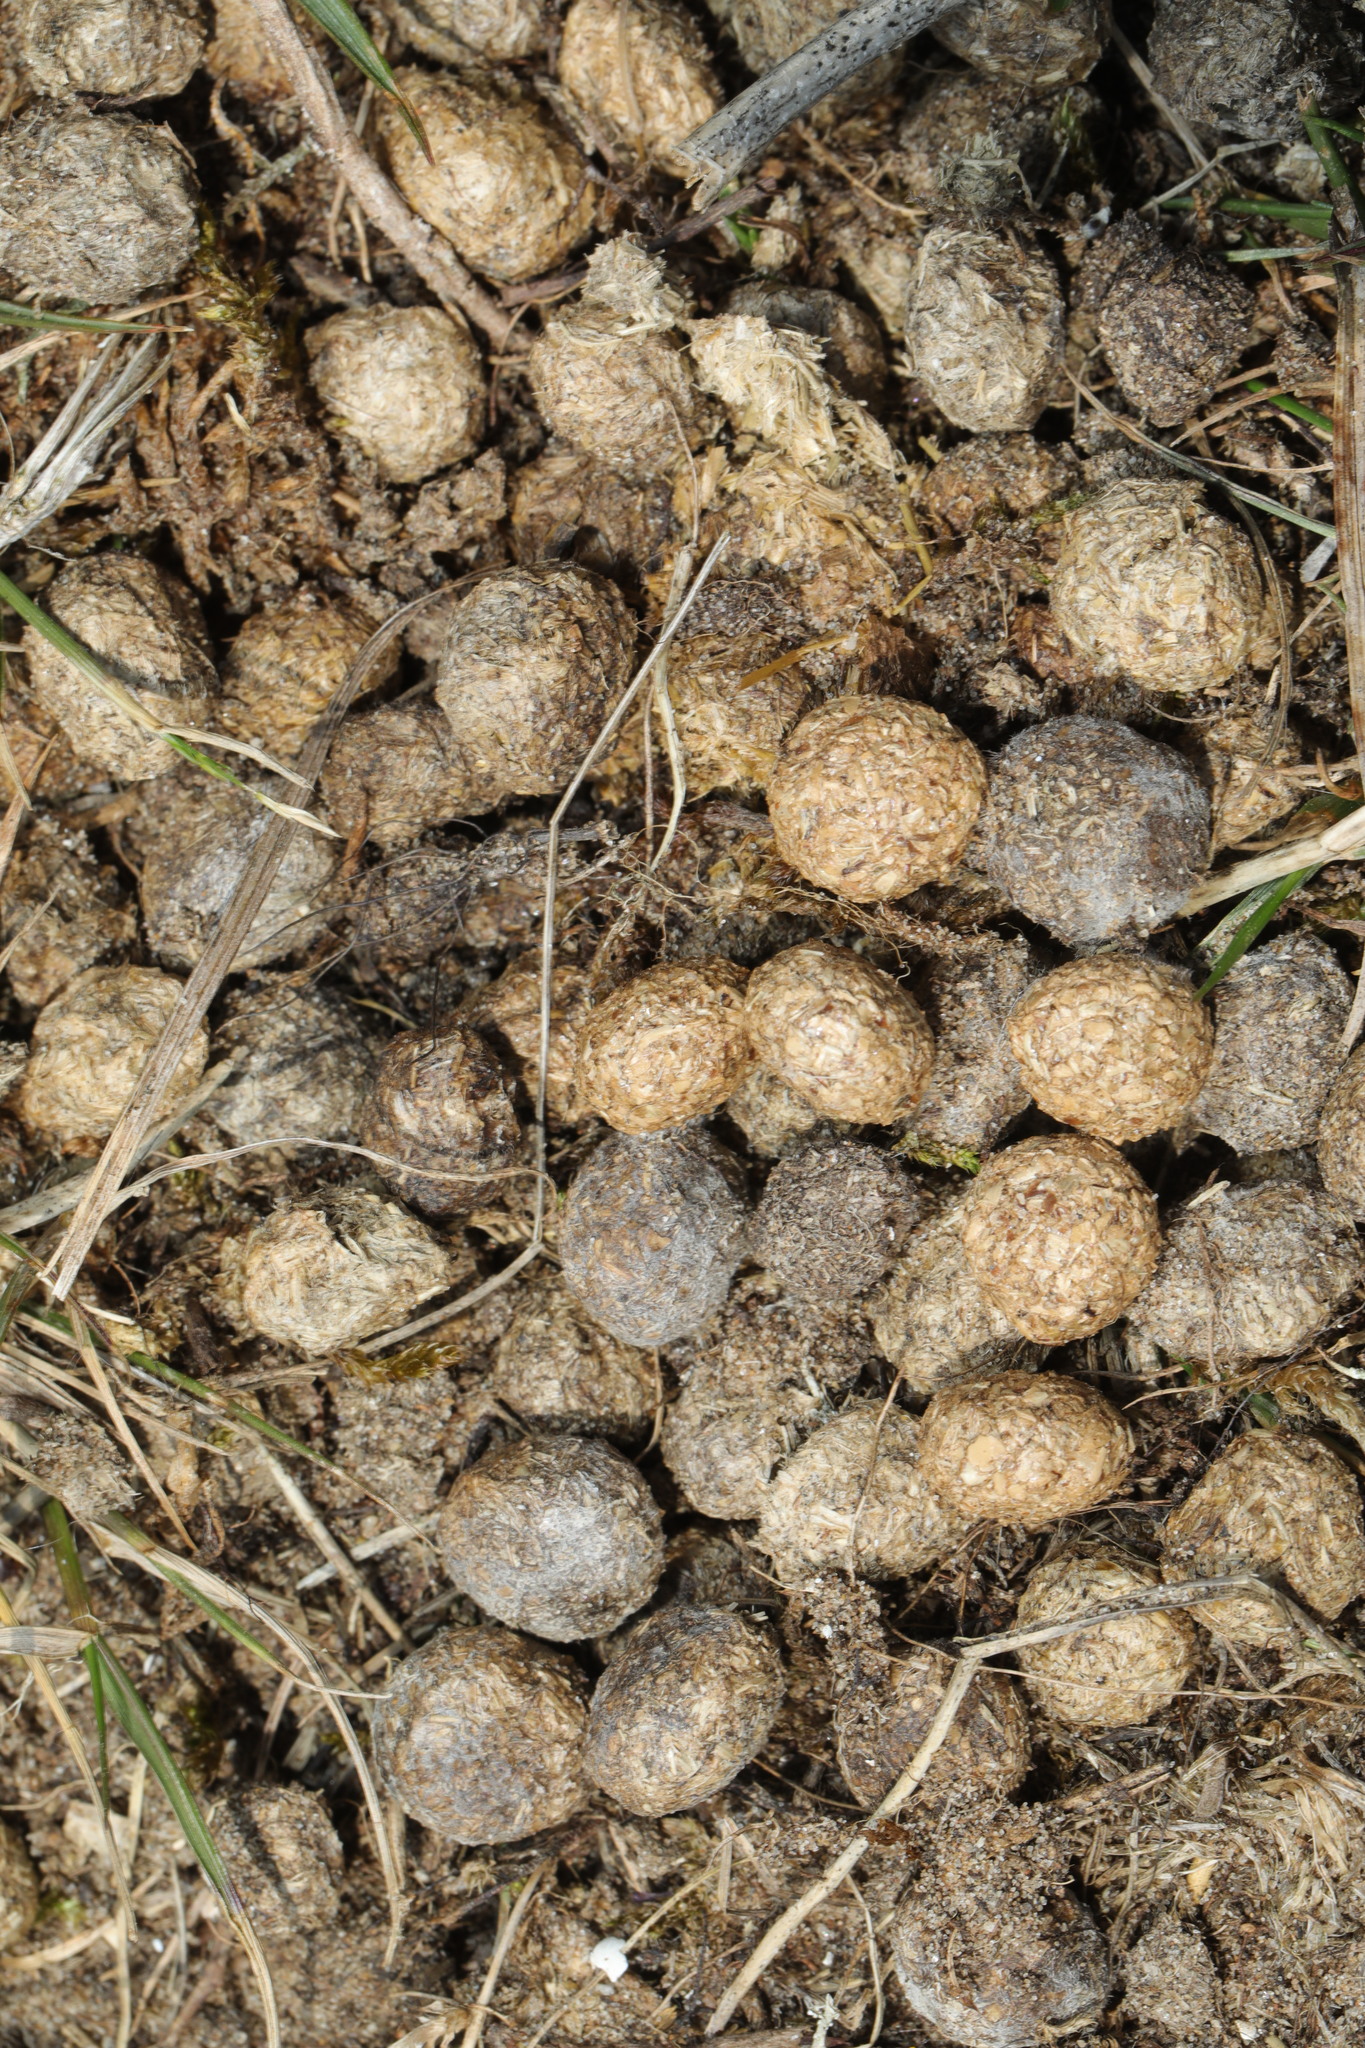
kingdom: Animalia
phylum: Chordata
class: Mammalia
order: Lagomorpha
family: Leporidae
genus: Oryctolagus
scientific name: Oryctolagus cuniculus
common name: European rabbit
